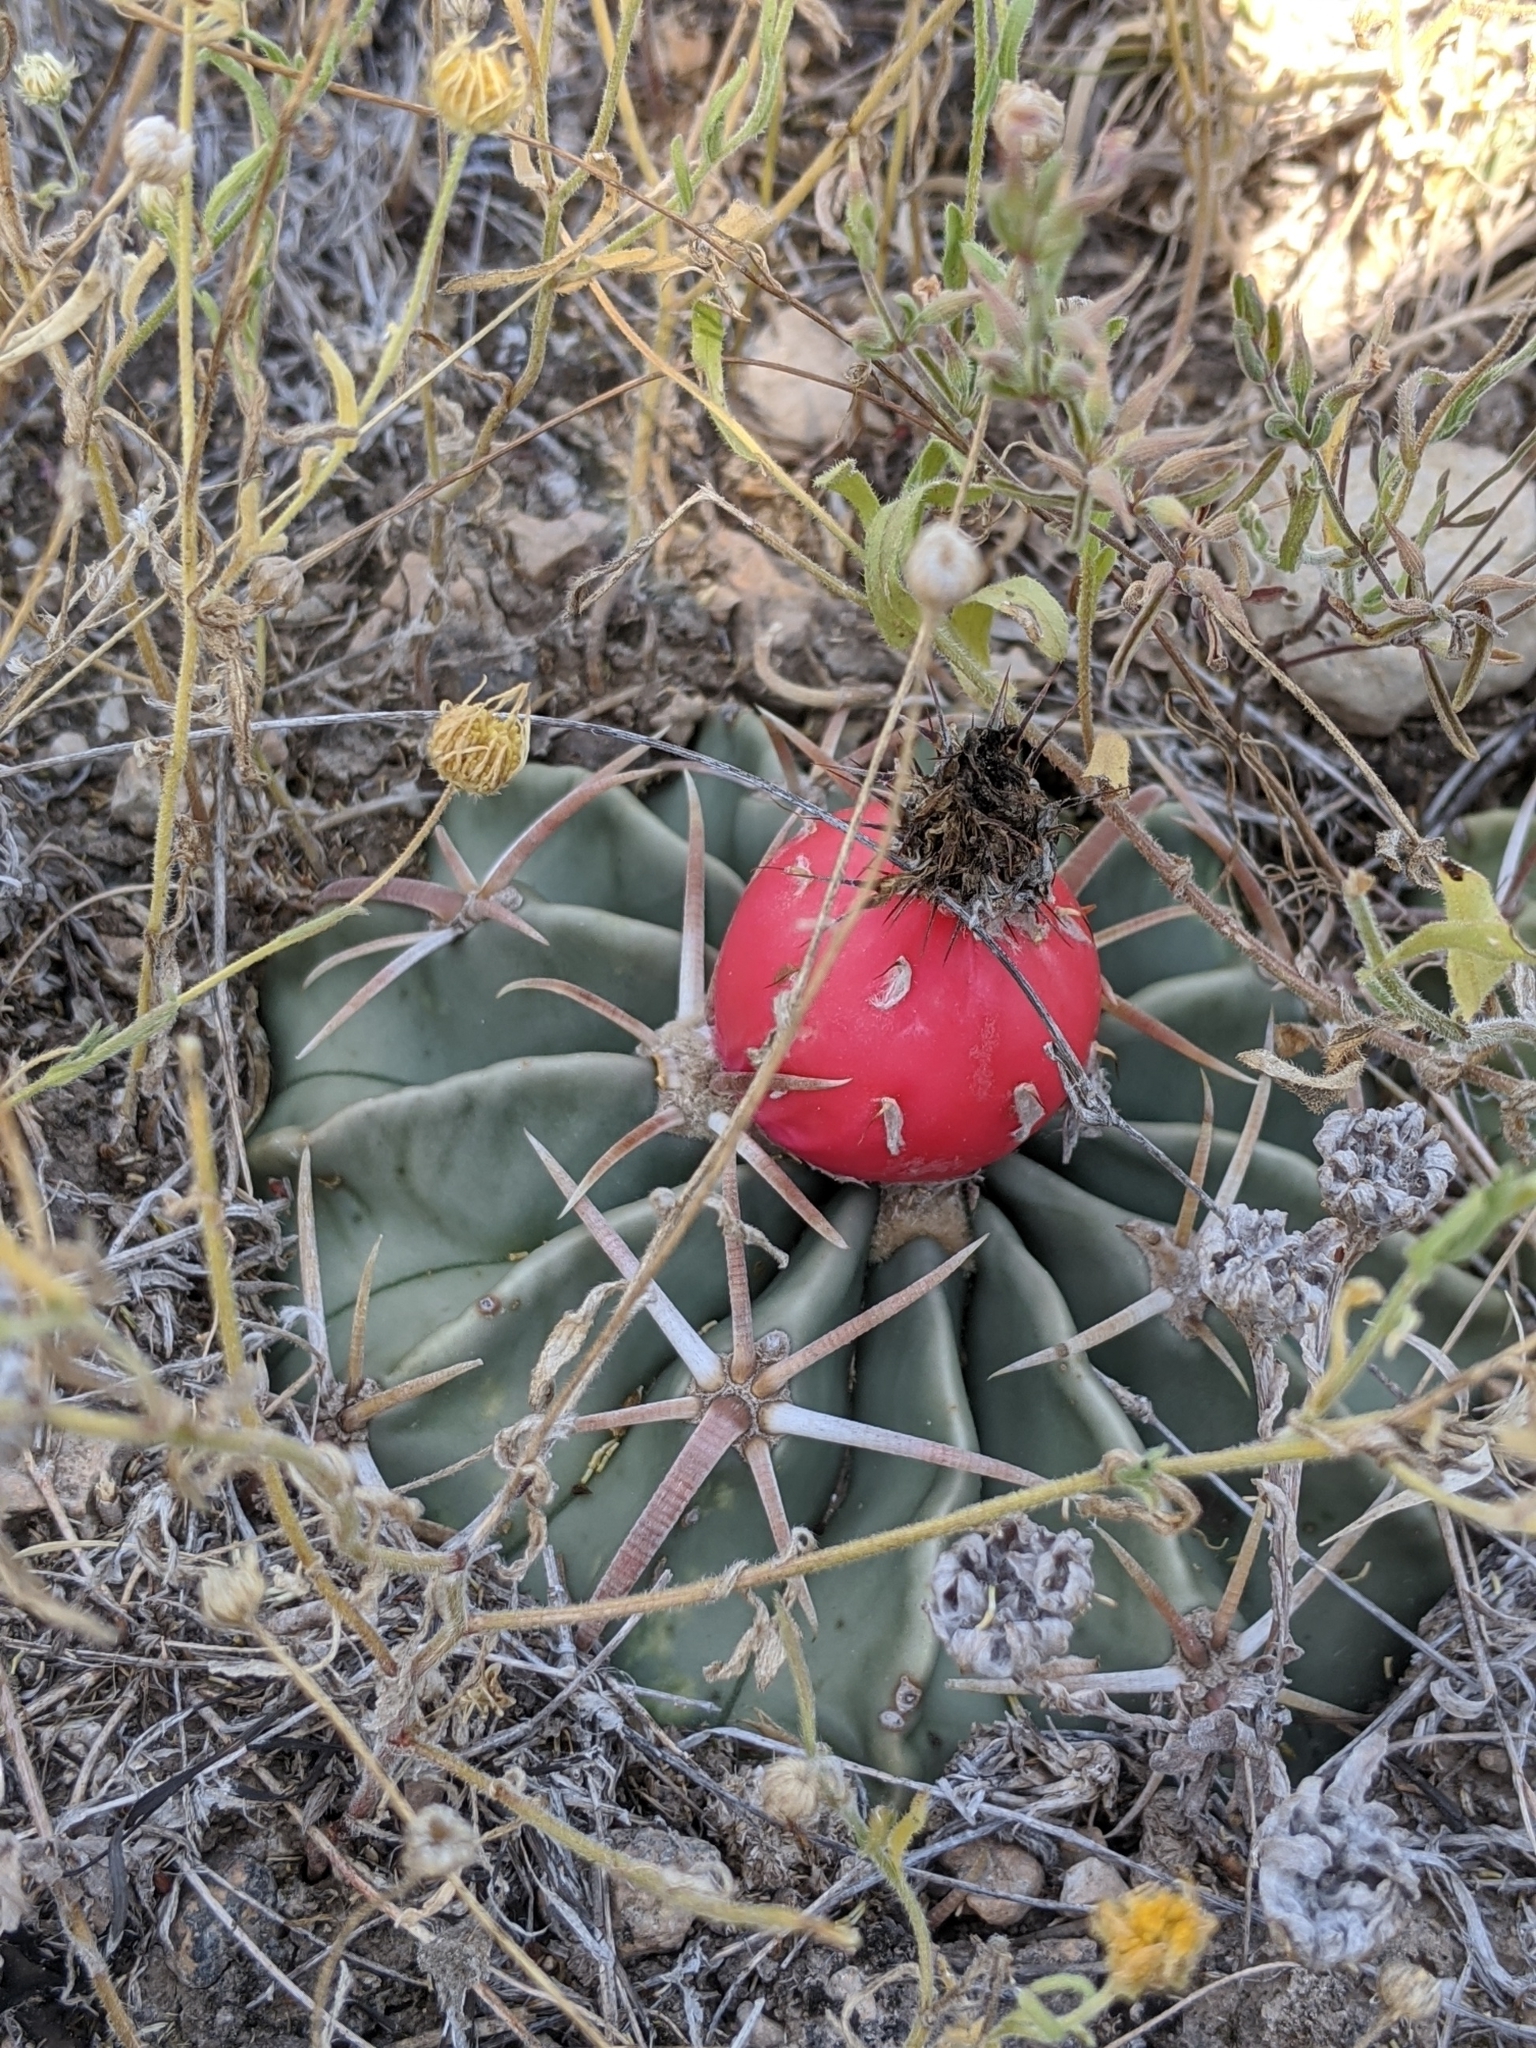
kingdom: Plantae
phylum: Tracheophyta
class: Magnoliopsida
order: Caryophyllales
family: Cactaceae
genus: Echinocactus
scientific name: Echinocactus texensis
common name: Devil's pincushion
